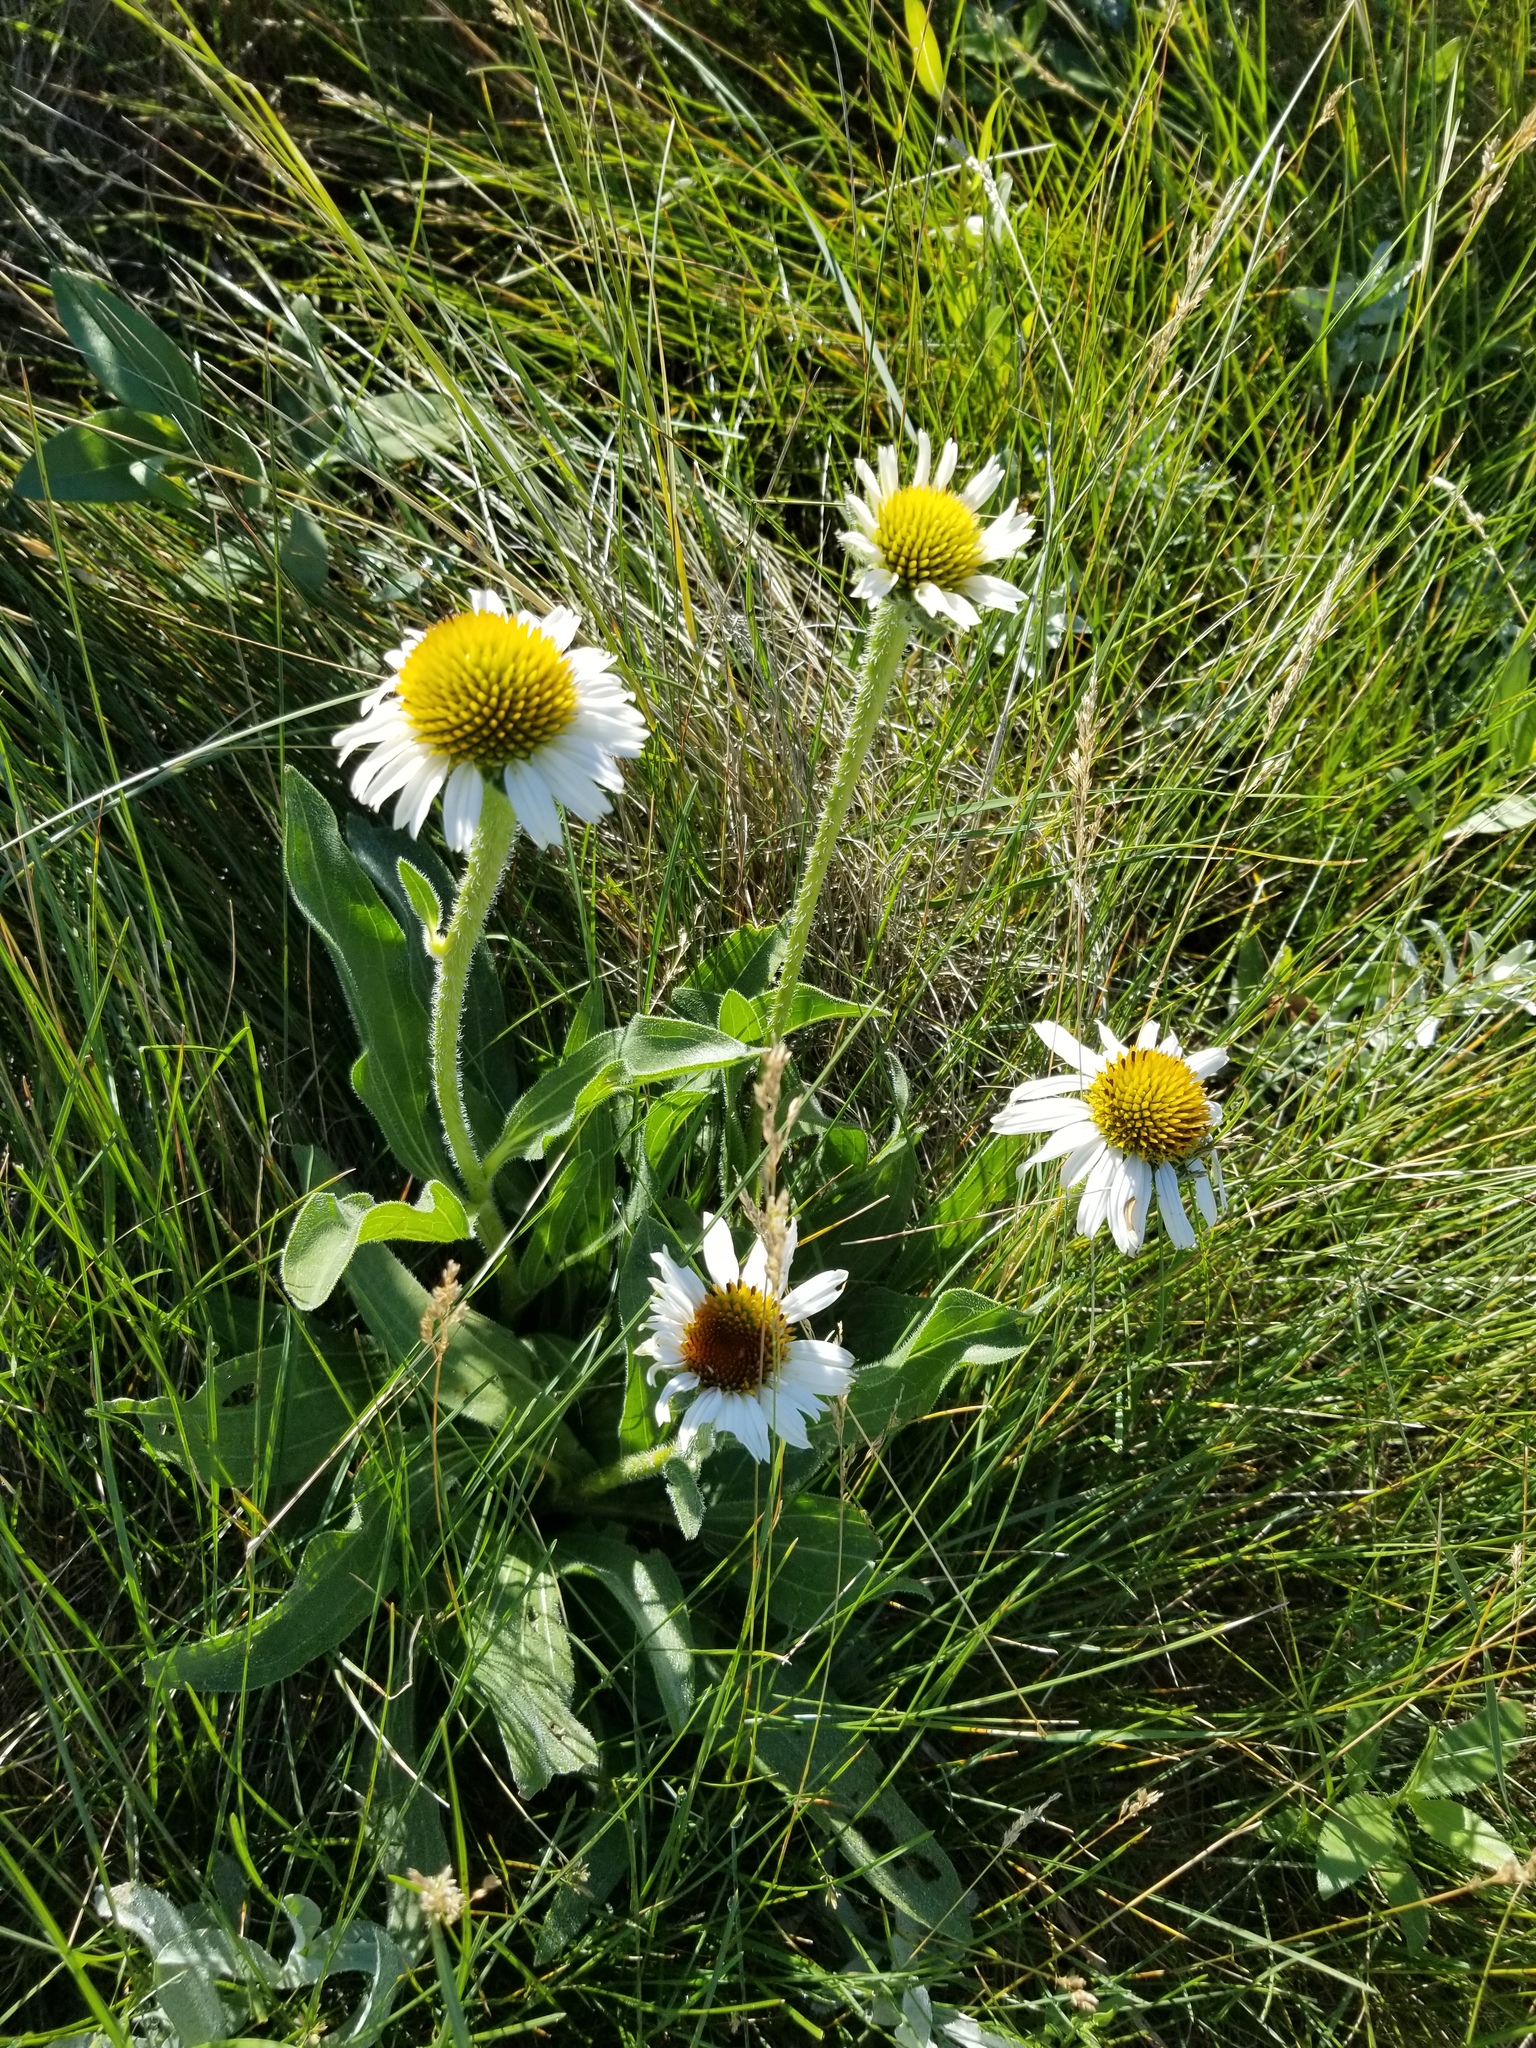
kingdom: Plantae
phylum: Tracheophyta
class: Magnoliopsida
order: Asterales
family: Asteraceae
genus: Echinacea
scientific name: Echinacea angustifolia
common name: Black-sampson echinacea
